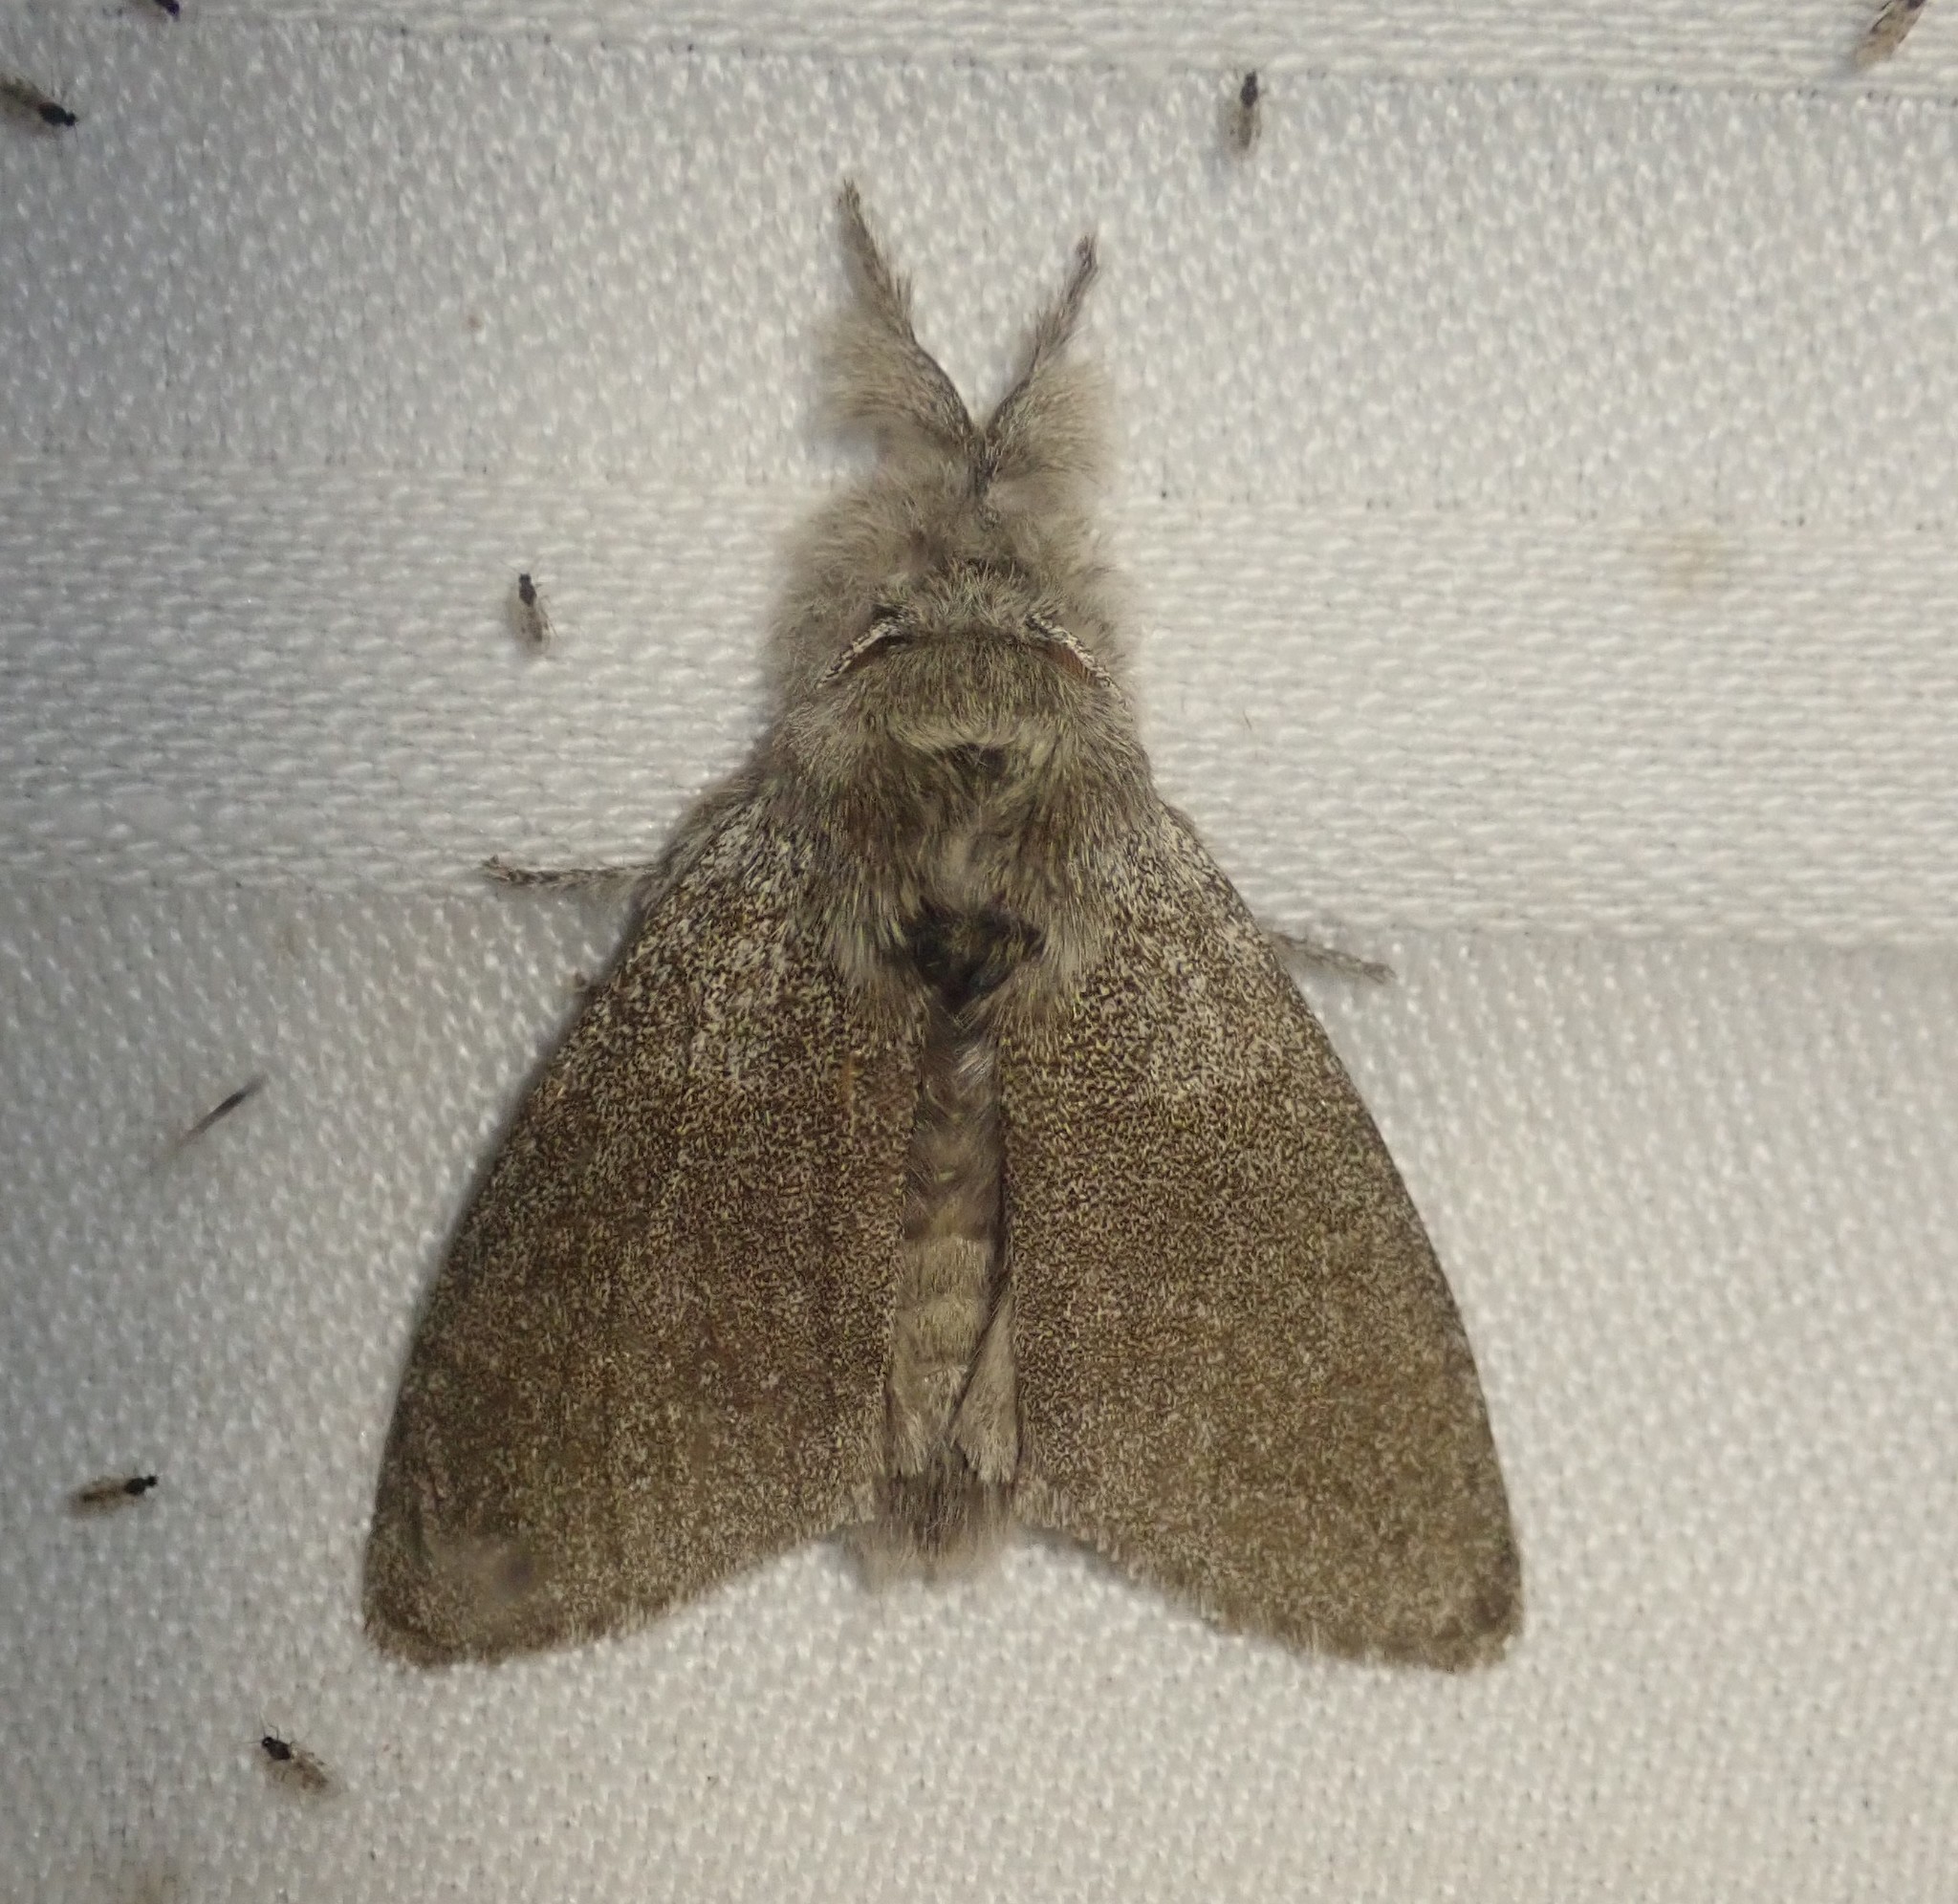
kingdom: Animalia
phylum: Arthropoda
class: Insecta
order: Lepidoptera
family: Erebidae
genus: Calliteara
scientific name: Calliteara pudibunda
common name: Pale tussock
